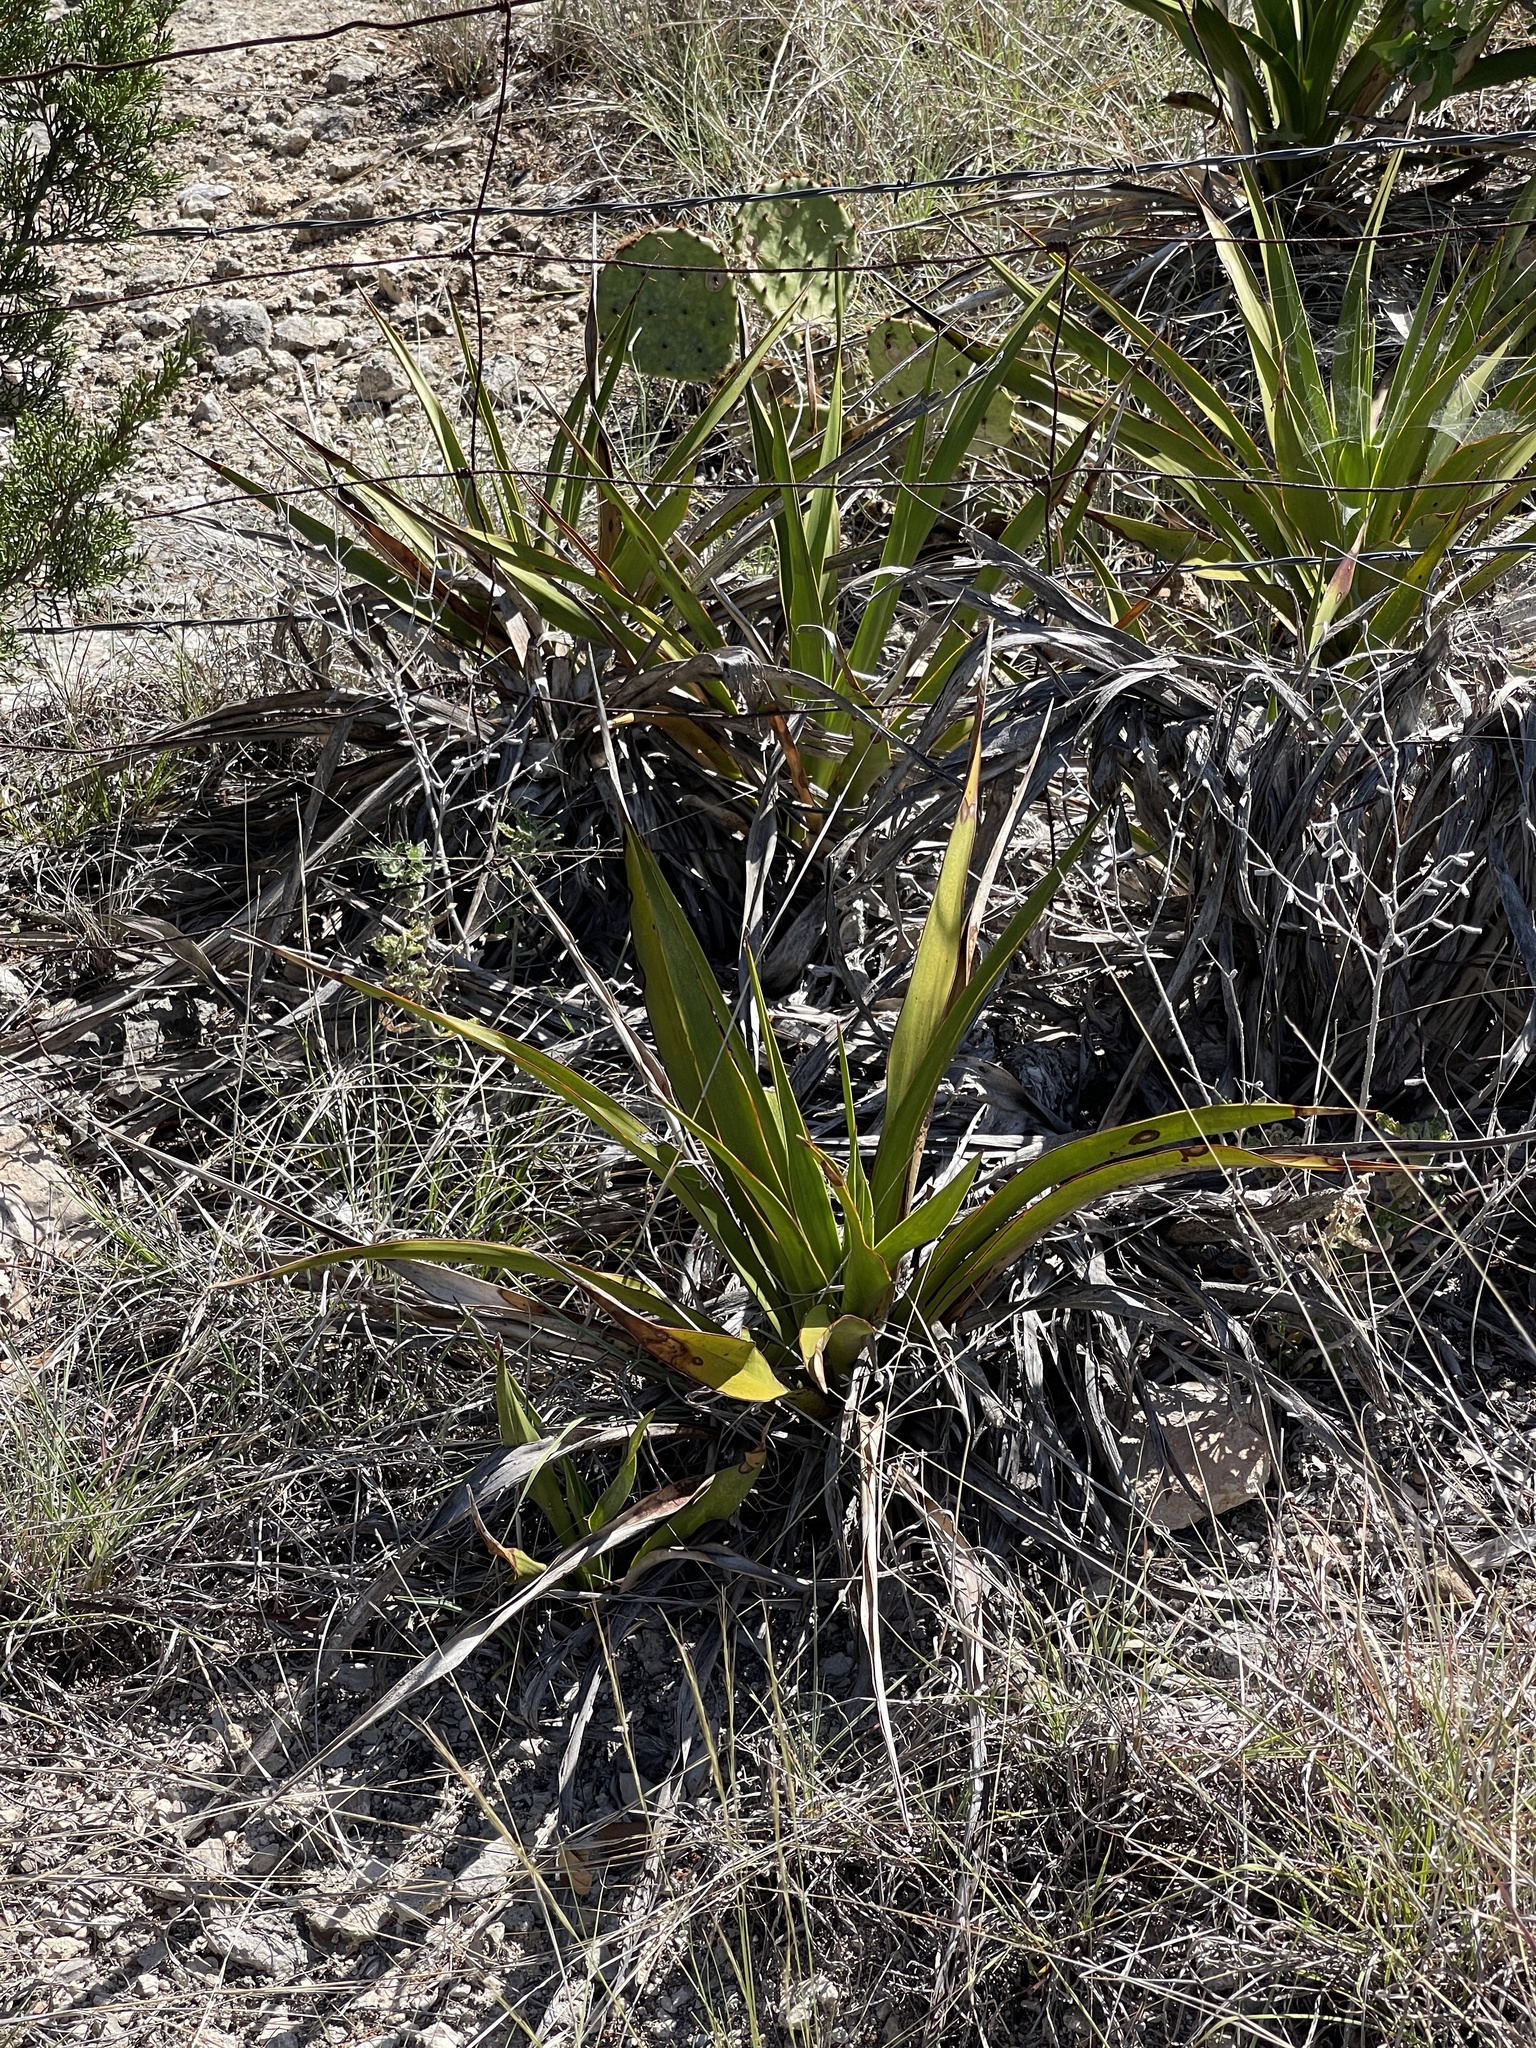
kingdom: Plantae
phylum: Tracheophyta
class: Liliopsida
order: Asparagales
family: Asparagaceae
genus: Yucca
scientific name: Yucca rupicola
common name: Twisted-leaf spanish-dagger
